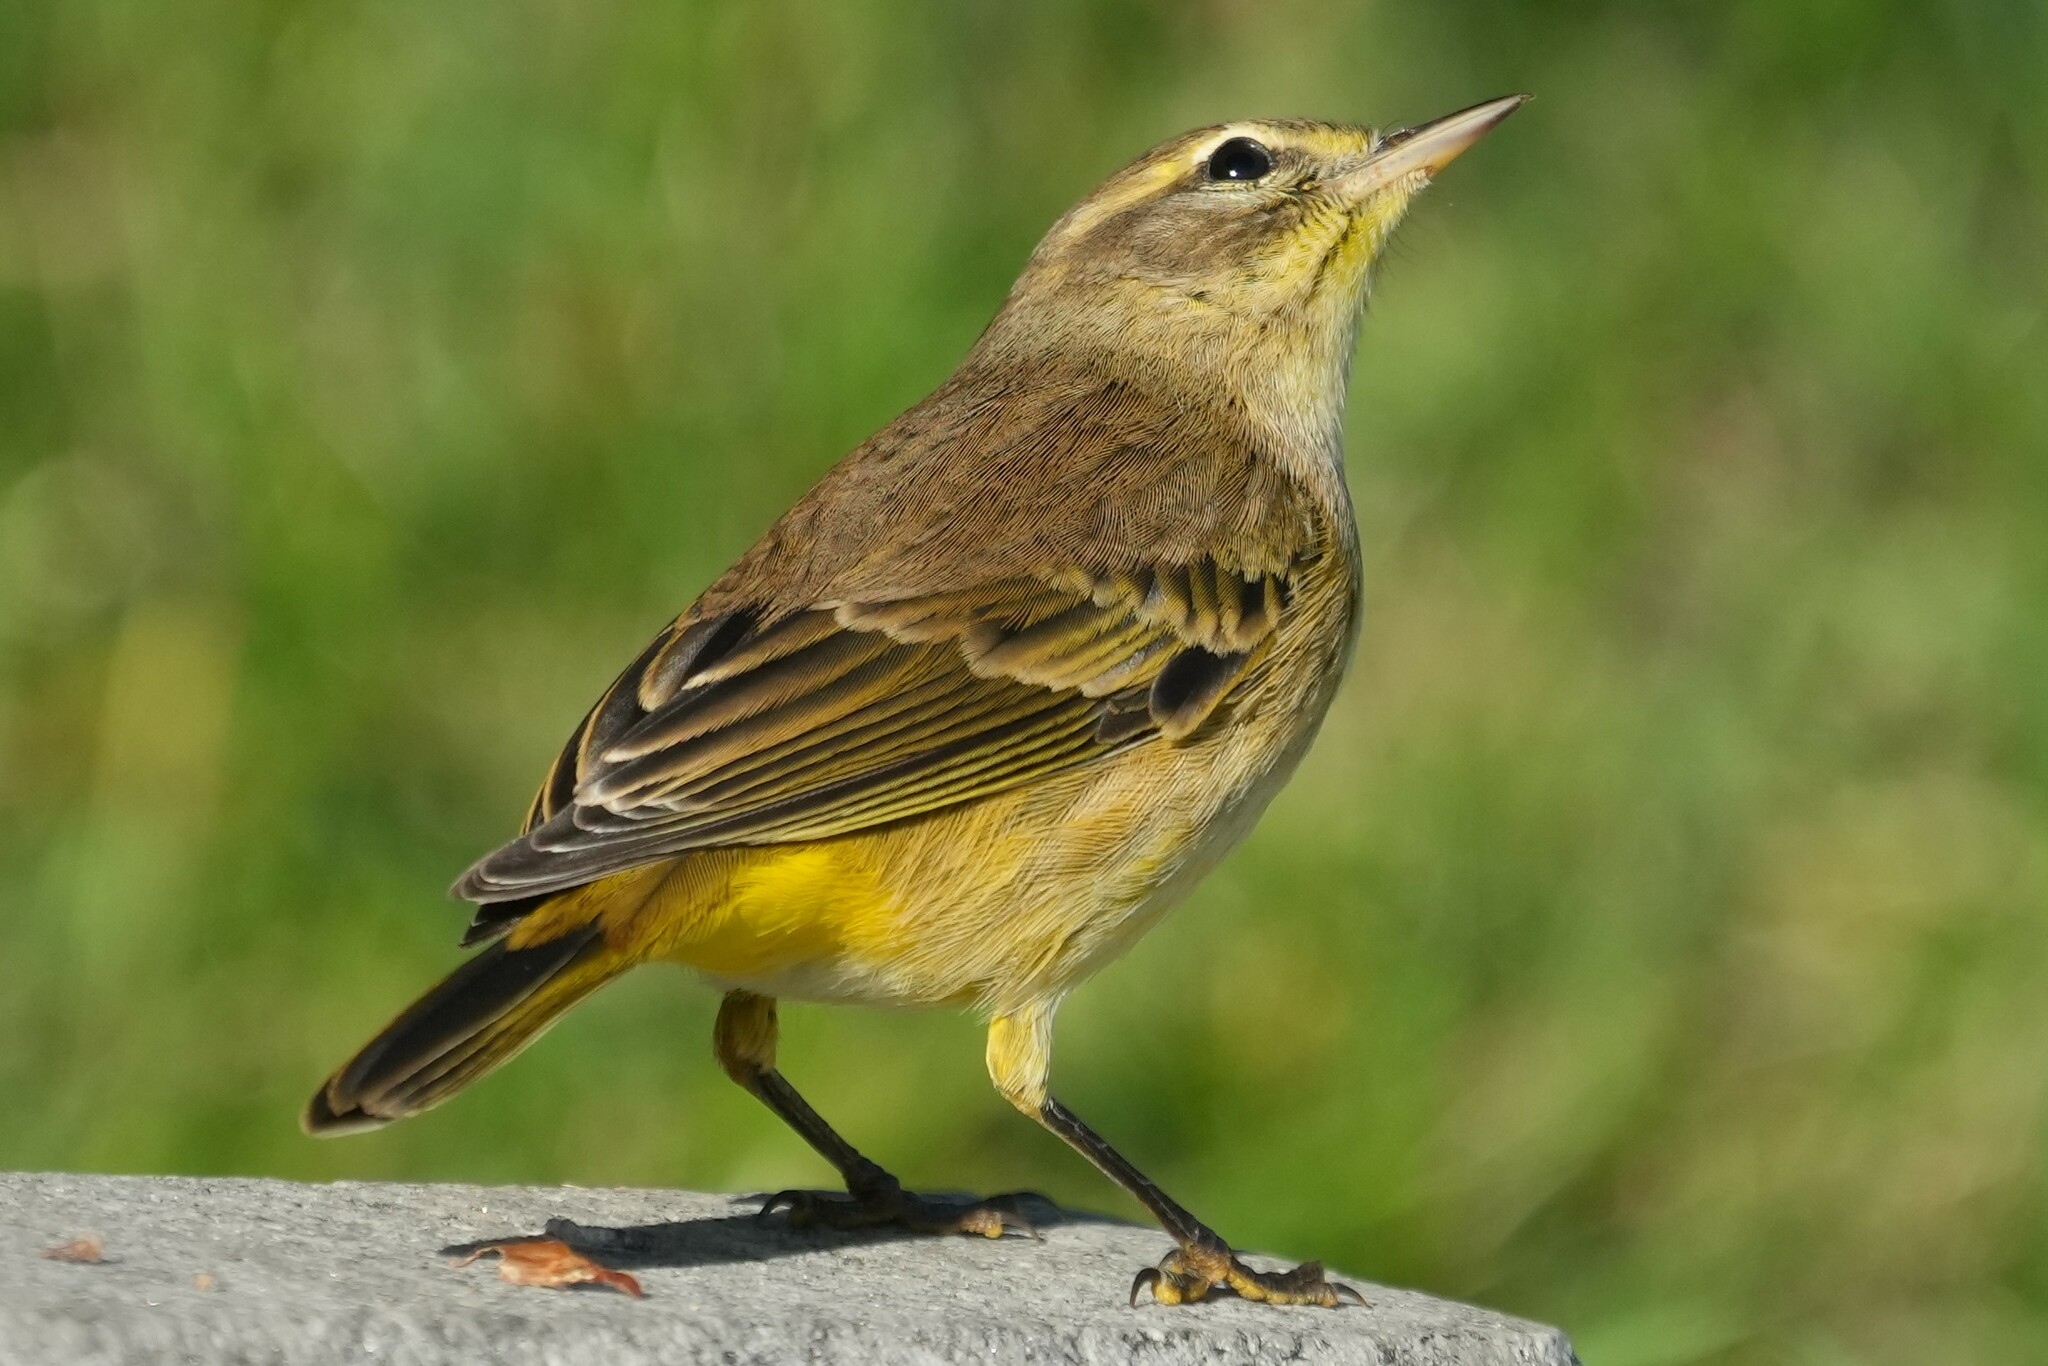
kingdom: Animalia
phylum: Chordata
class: Aves
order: Passeriformes
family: Parulidae
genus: Setophaga
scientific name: Setophaga palmarum
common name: Palm warbler
